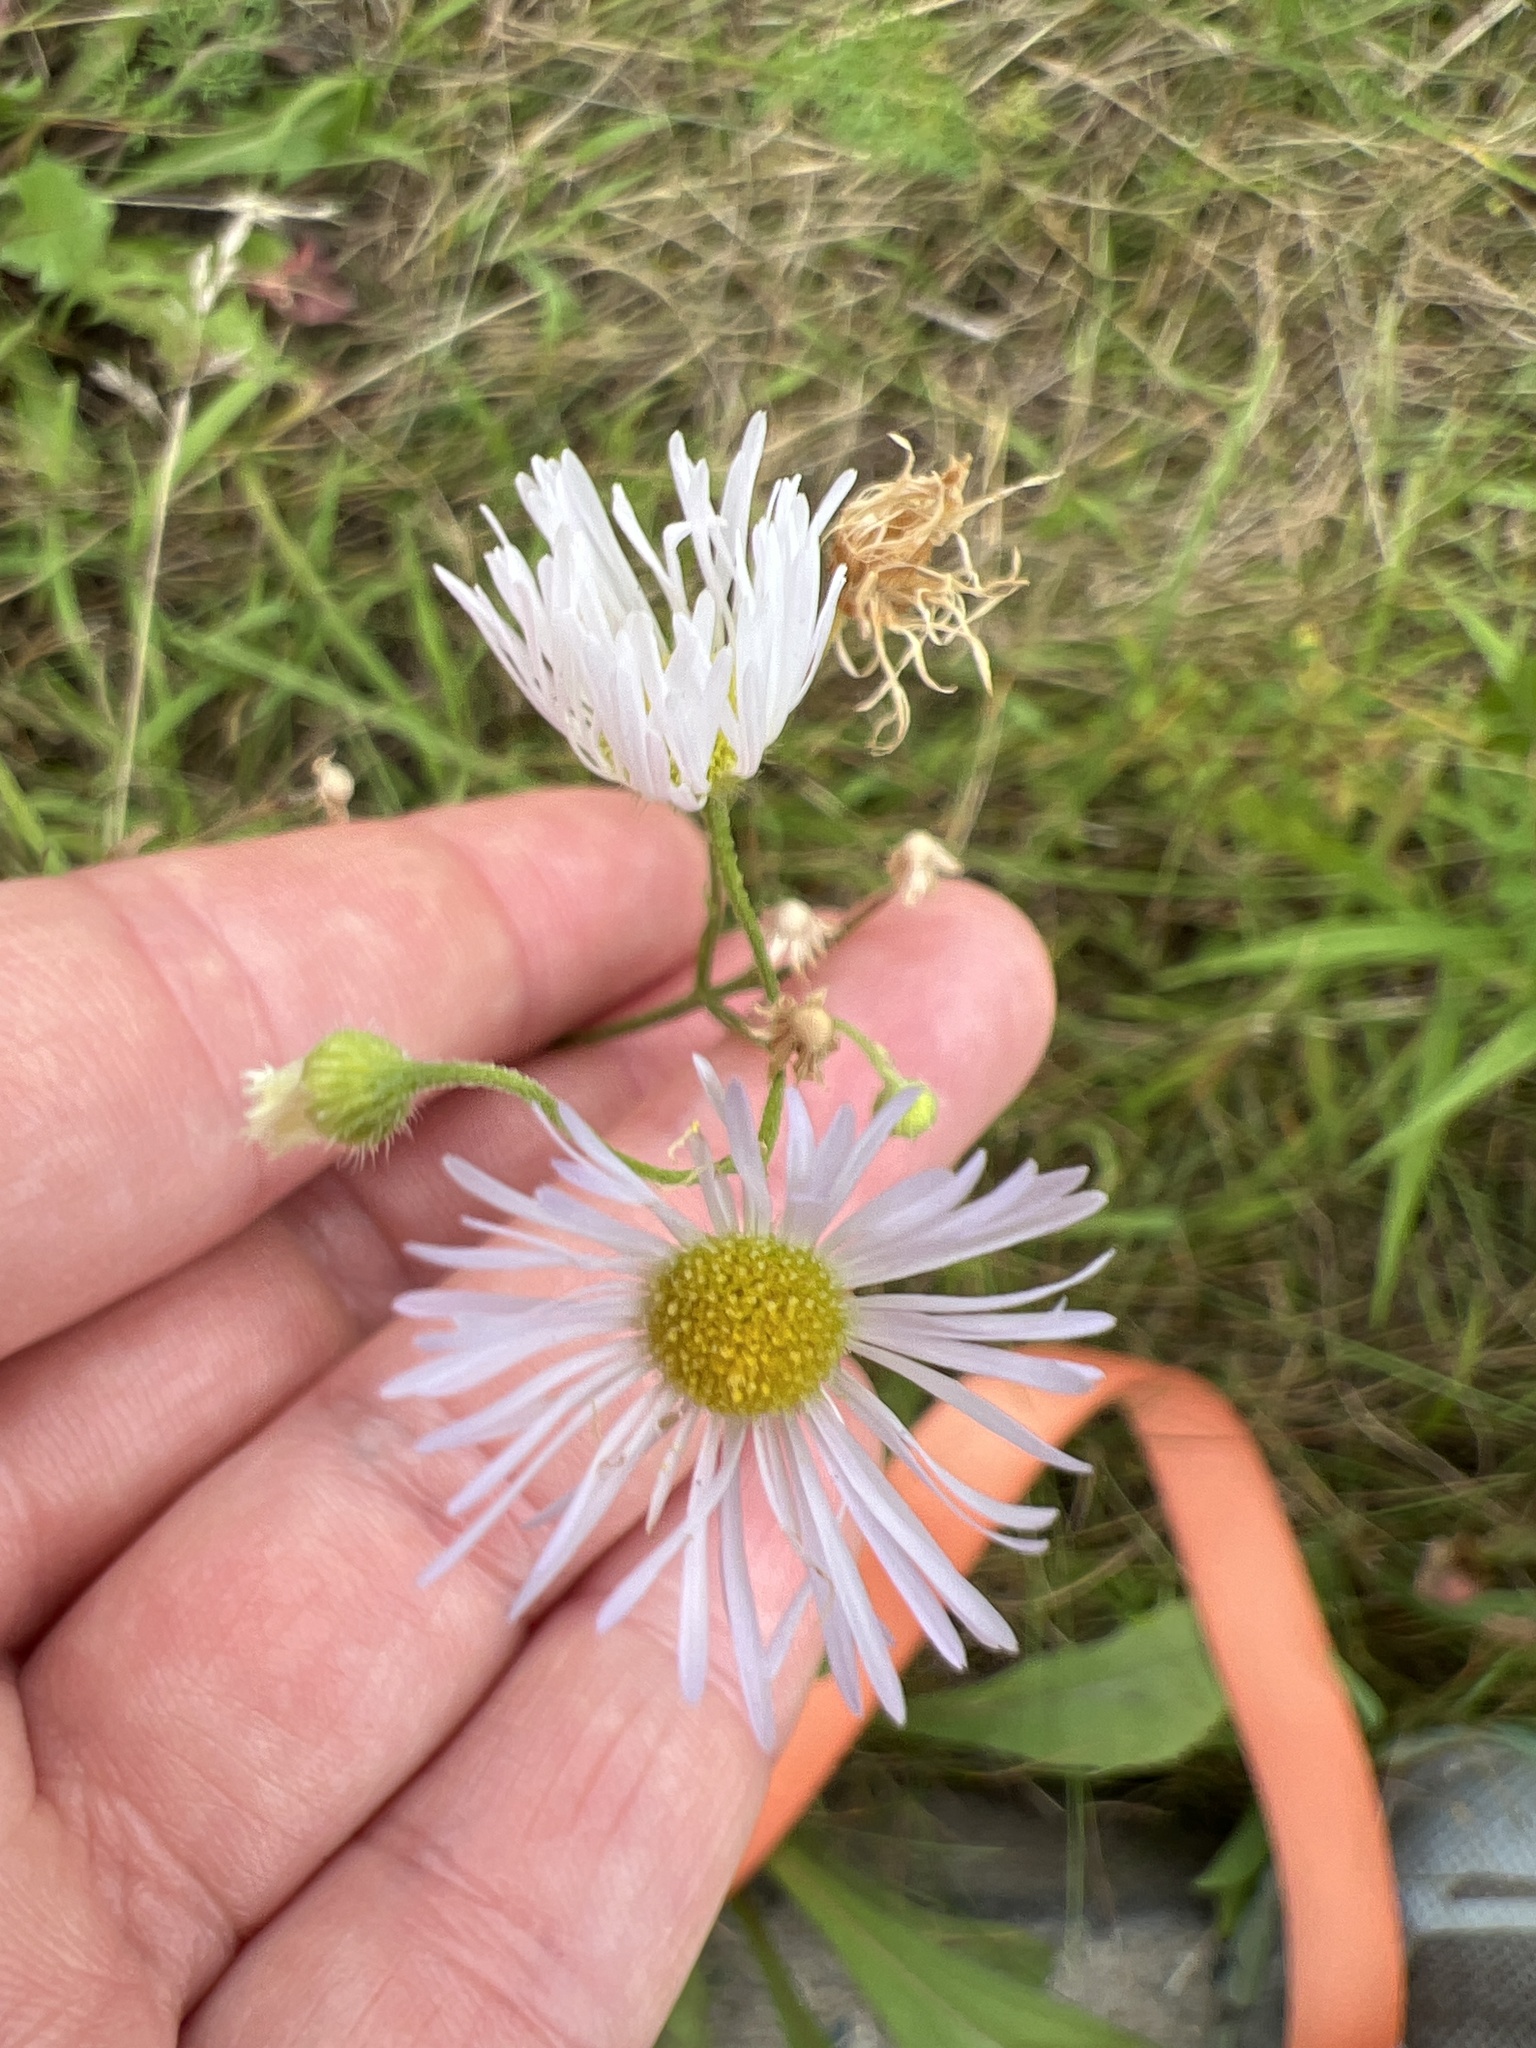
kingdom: Plantae
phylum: Tracheophyta
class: Magnoliopsida
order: Asterales
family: Asteraceae
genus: Erigeron
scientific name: Erigeron strigosus
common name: Common eastern fleabane
